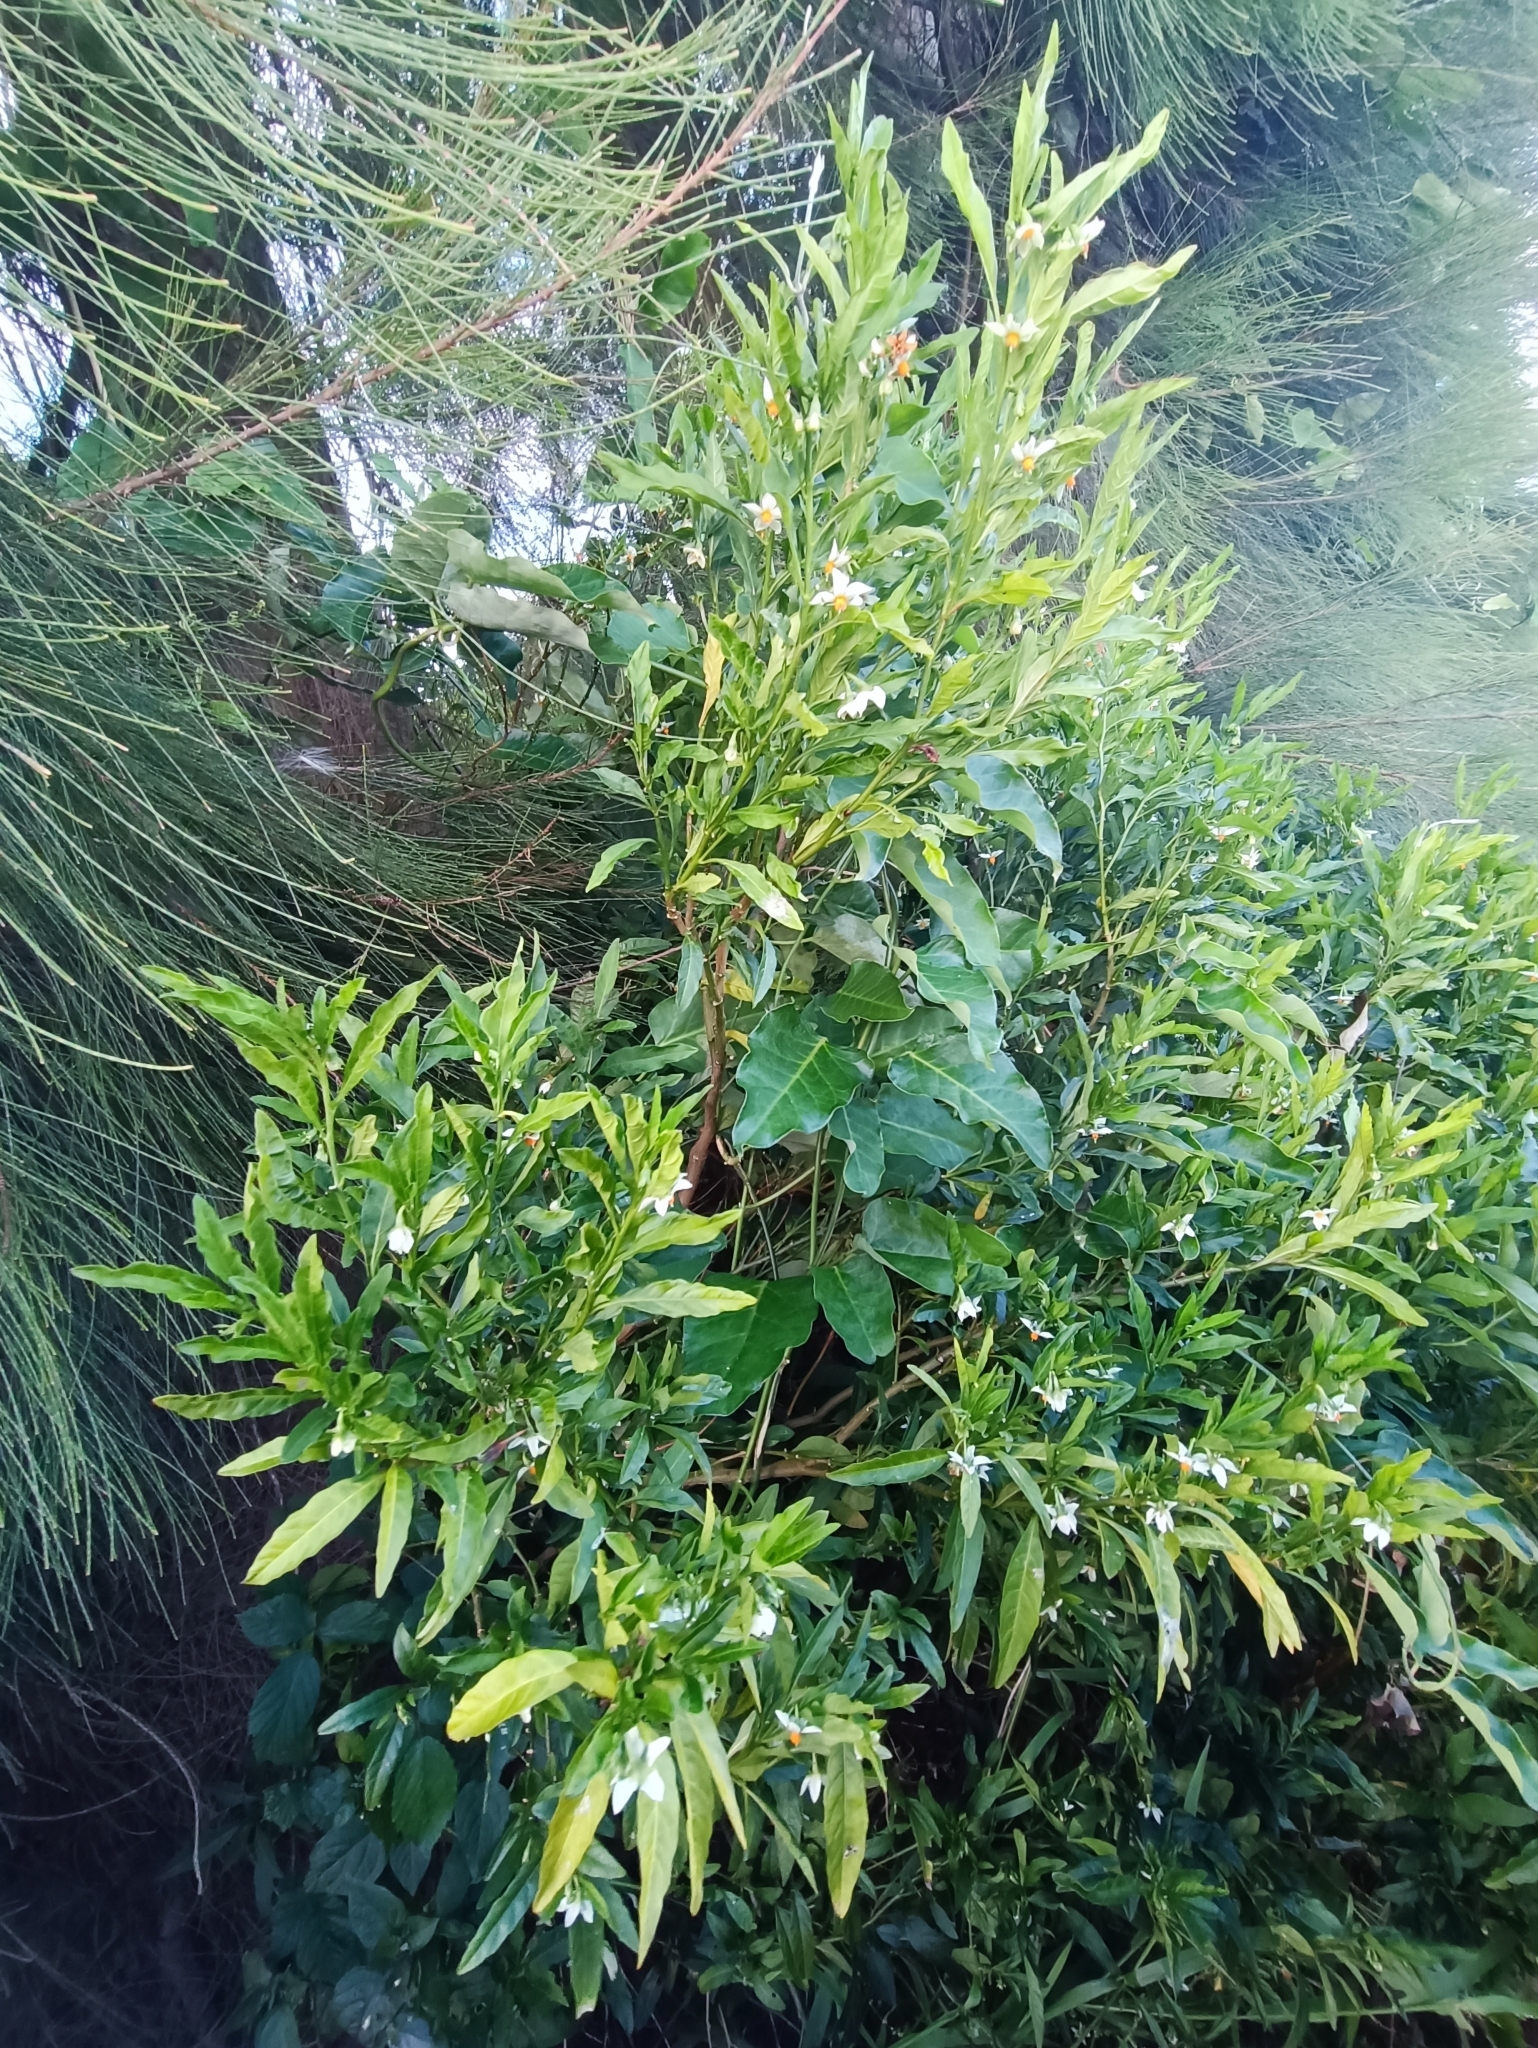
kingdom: Plantae
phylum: Tracheophyta
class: Magnoliopsida
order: Solanales
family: Solanaceae
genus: Solanum
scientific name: Solanum pseudocapsicum
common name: Jerusalem cherry
